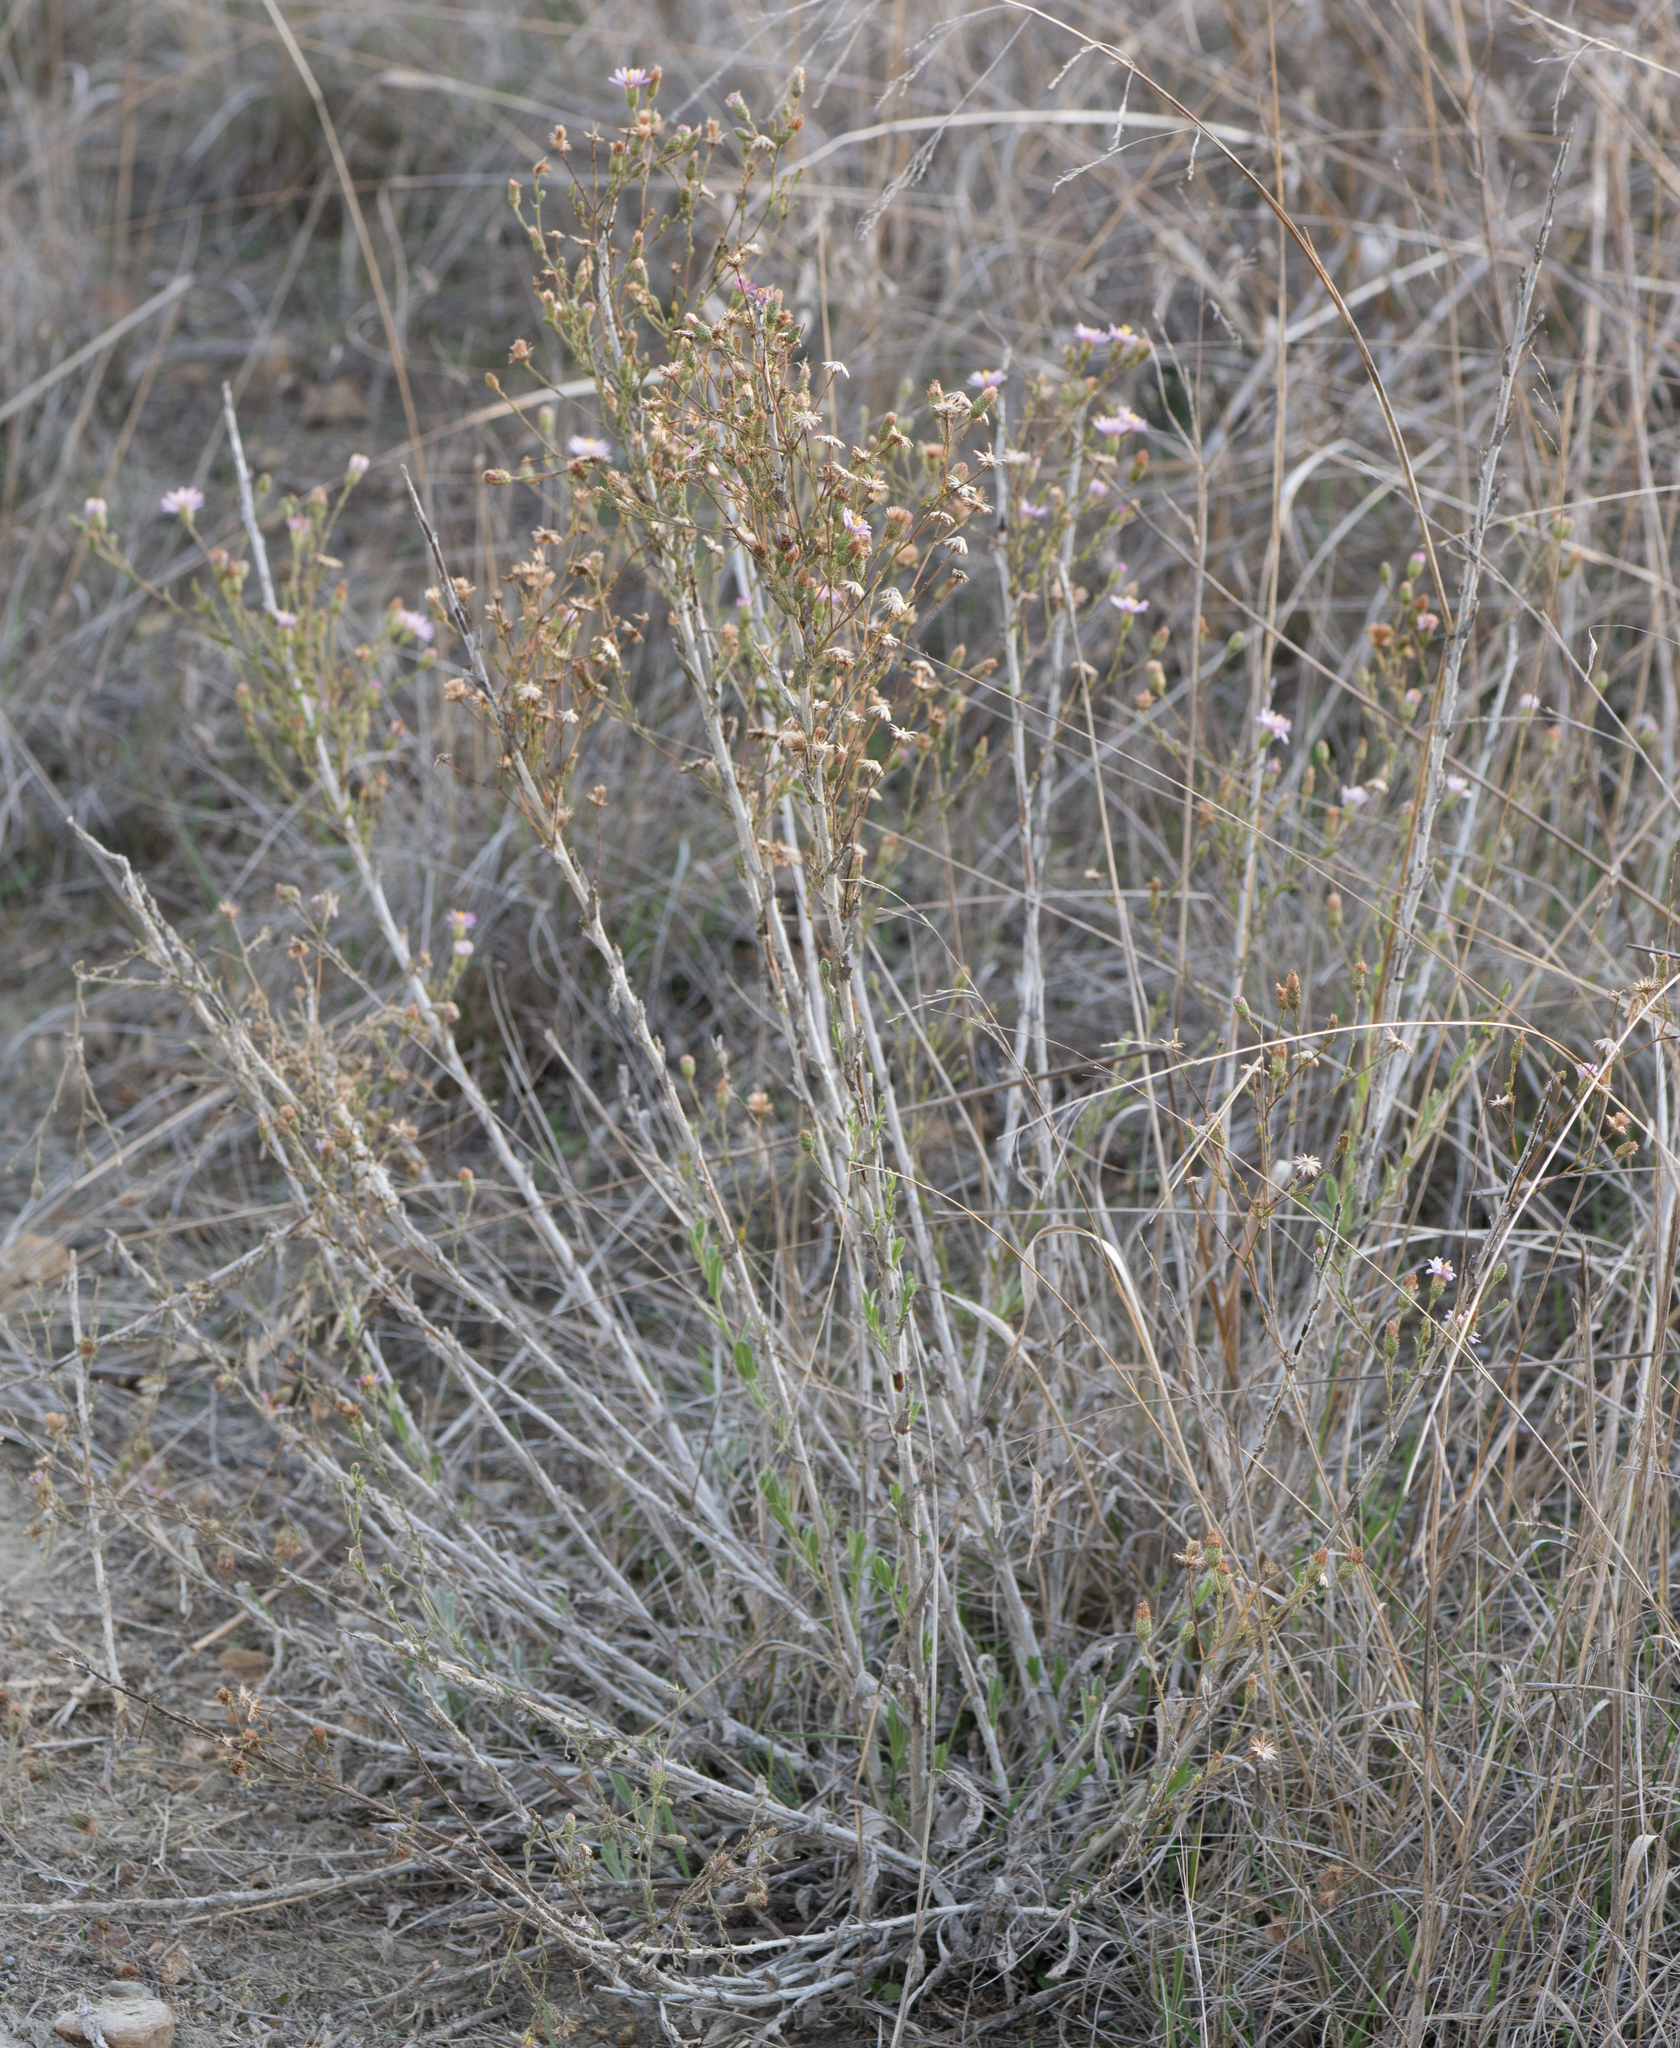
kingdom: Plantae
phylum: Tracheophyta
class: Magnoliopsida
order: Asterales
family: Asteraceae
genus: Corethrogyne
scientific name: Corethrogyne filaginifolia
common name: Sand-aster
